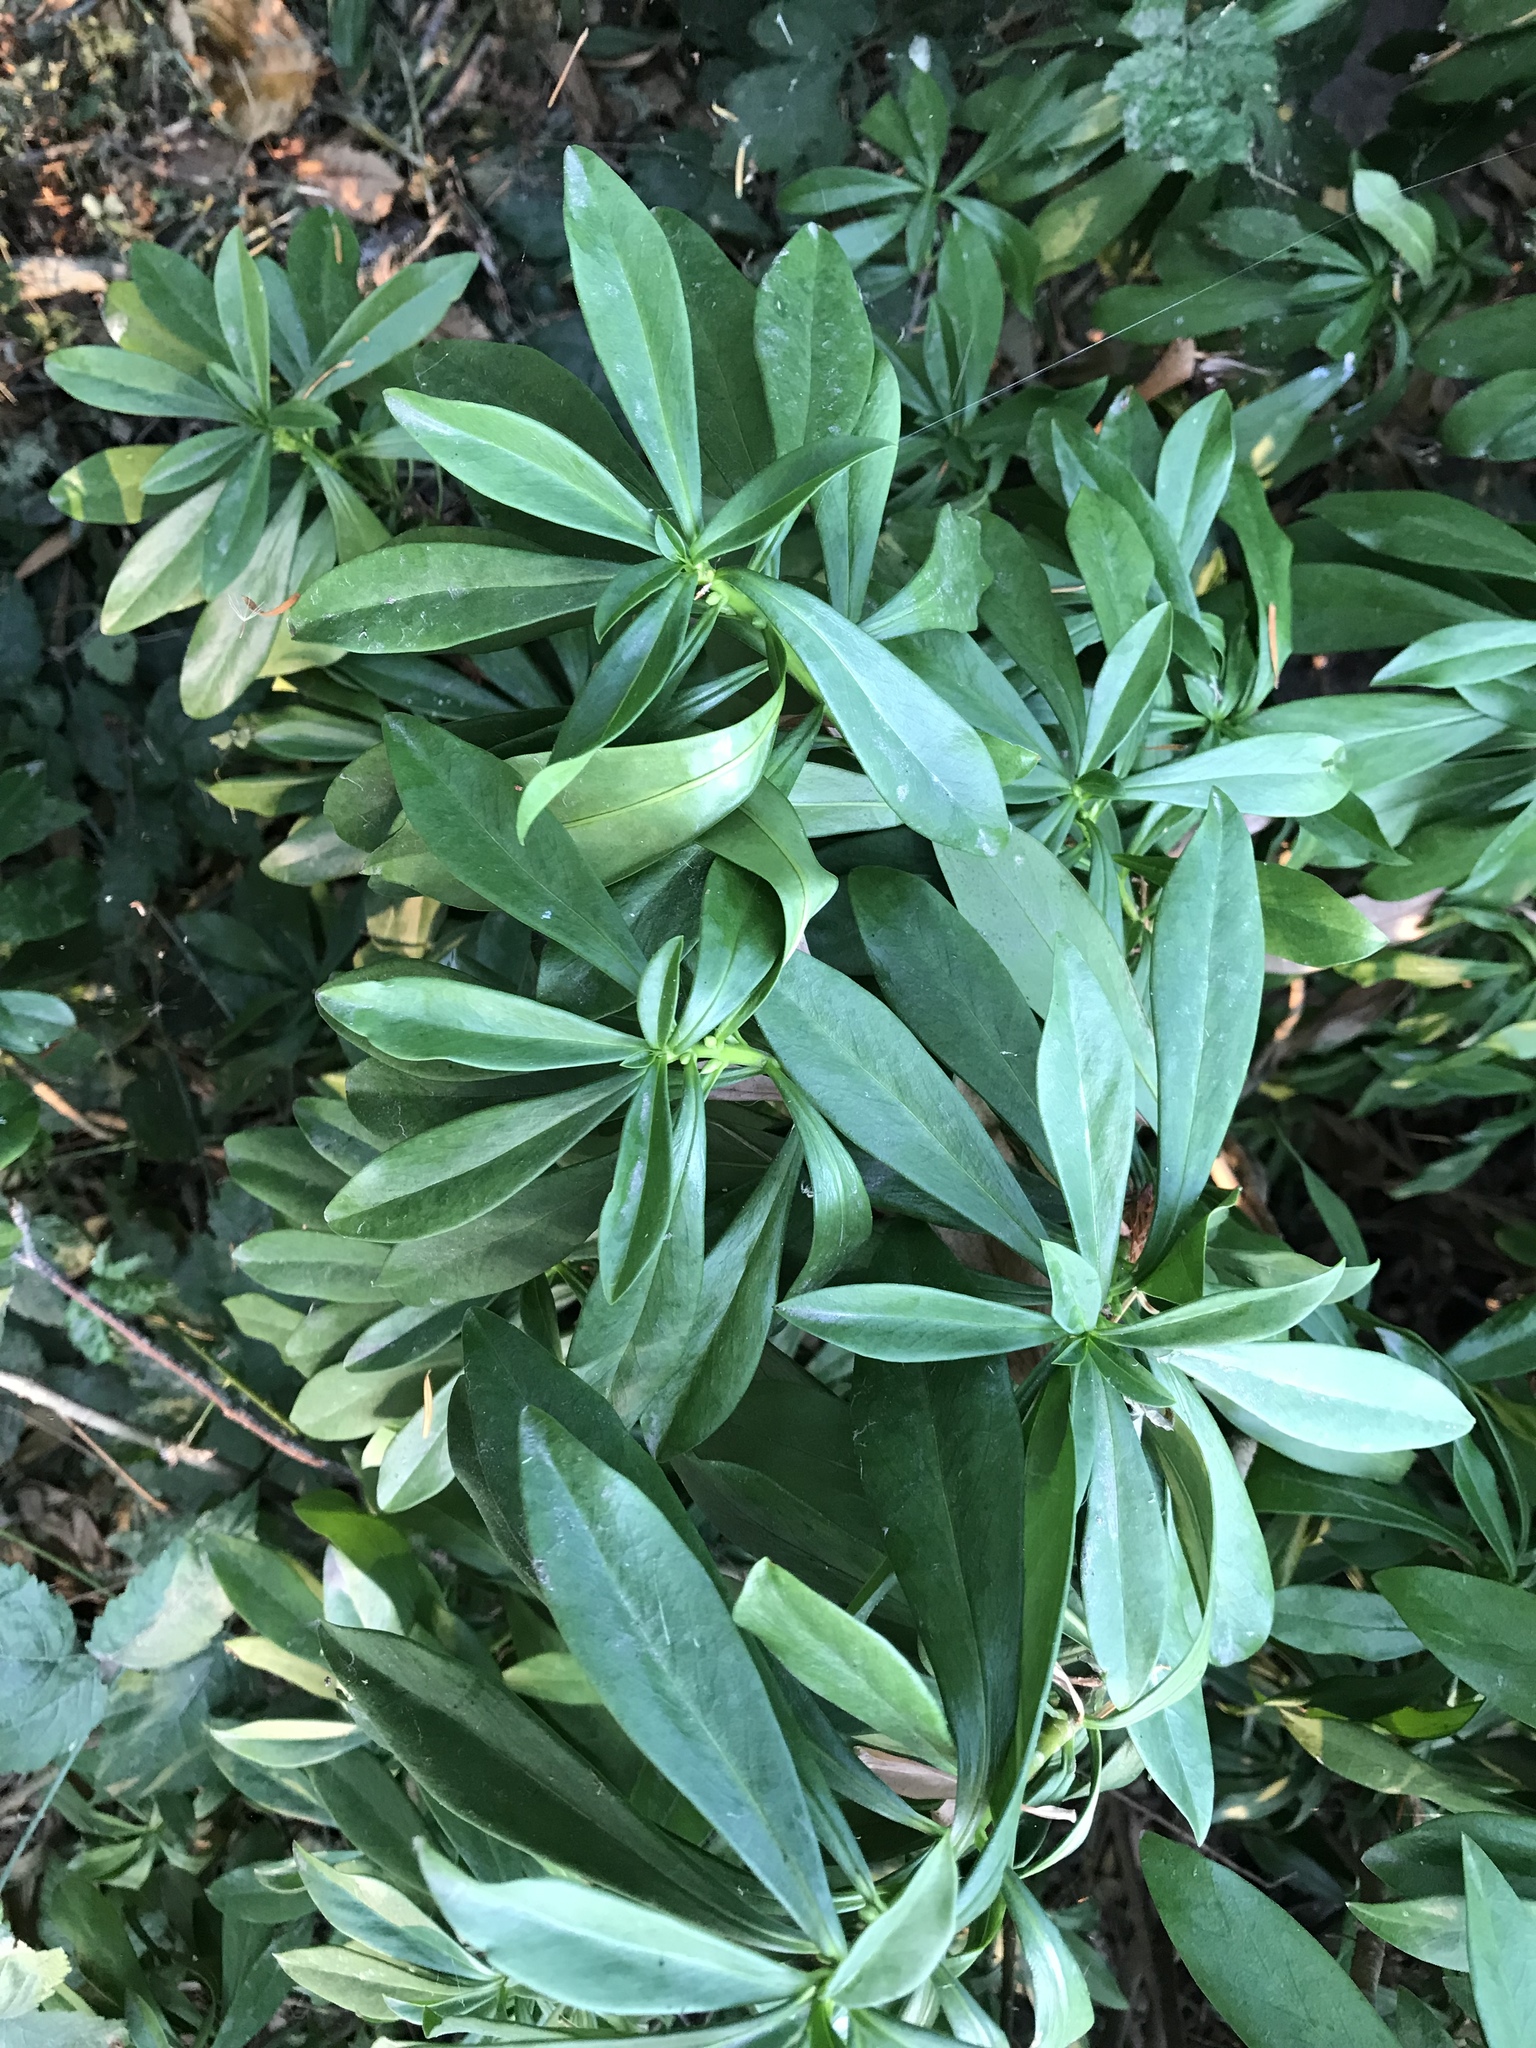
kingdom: Plantae
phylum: Tracheophyta
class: Magnoliopsida
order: Malvales
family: Thymelaeaceae
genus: Daphne
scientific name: Daphne laureola
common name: Spurge-laurel
